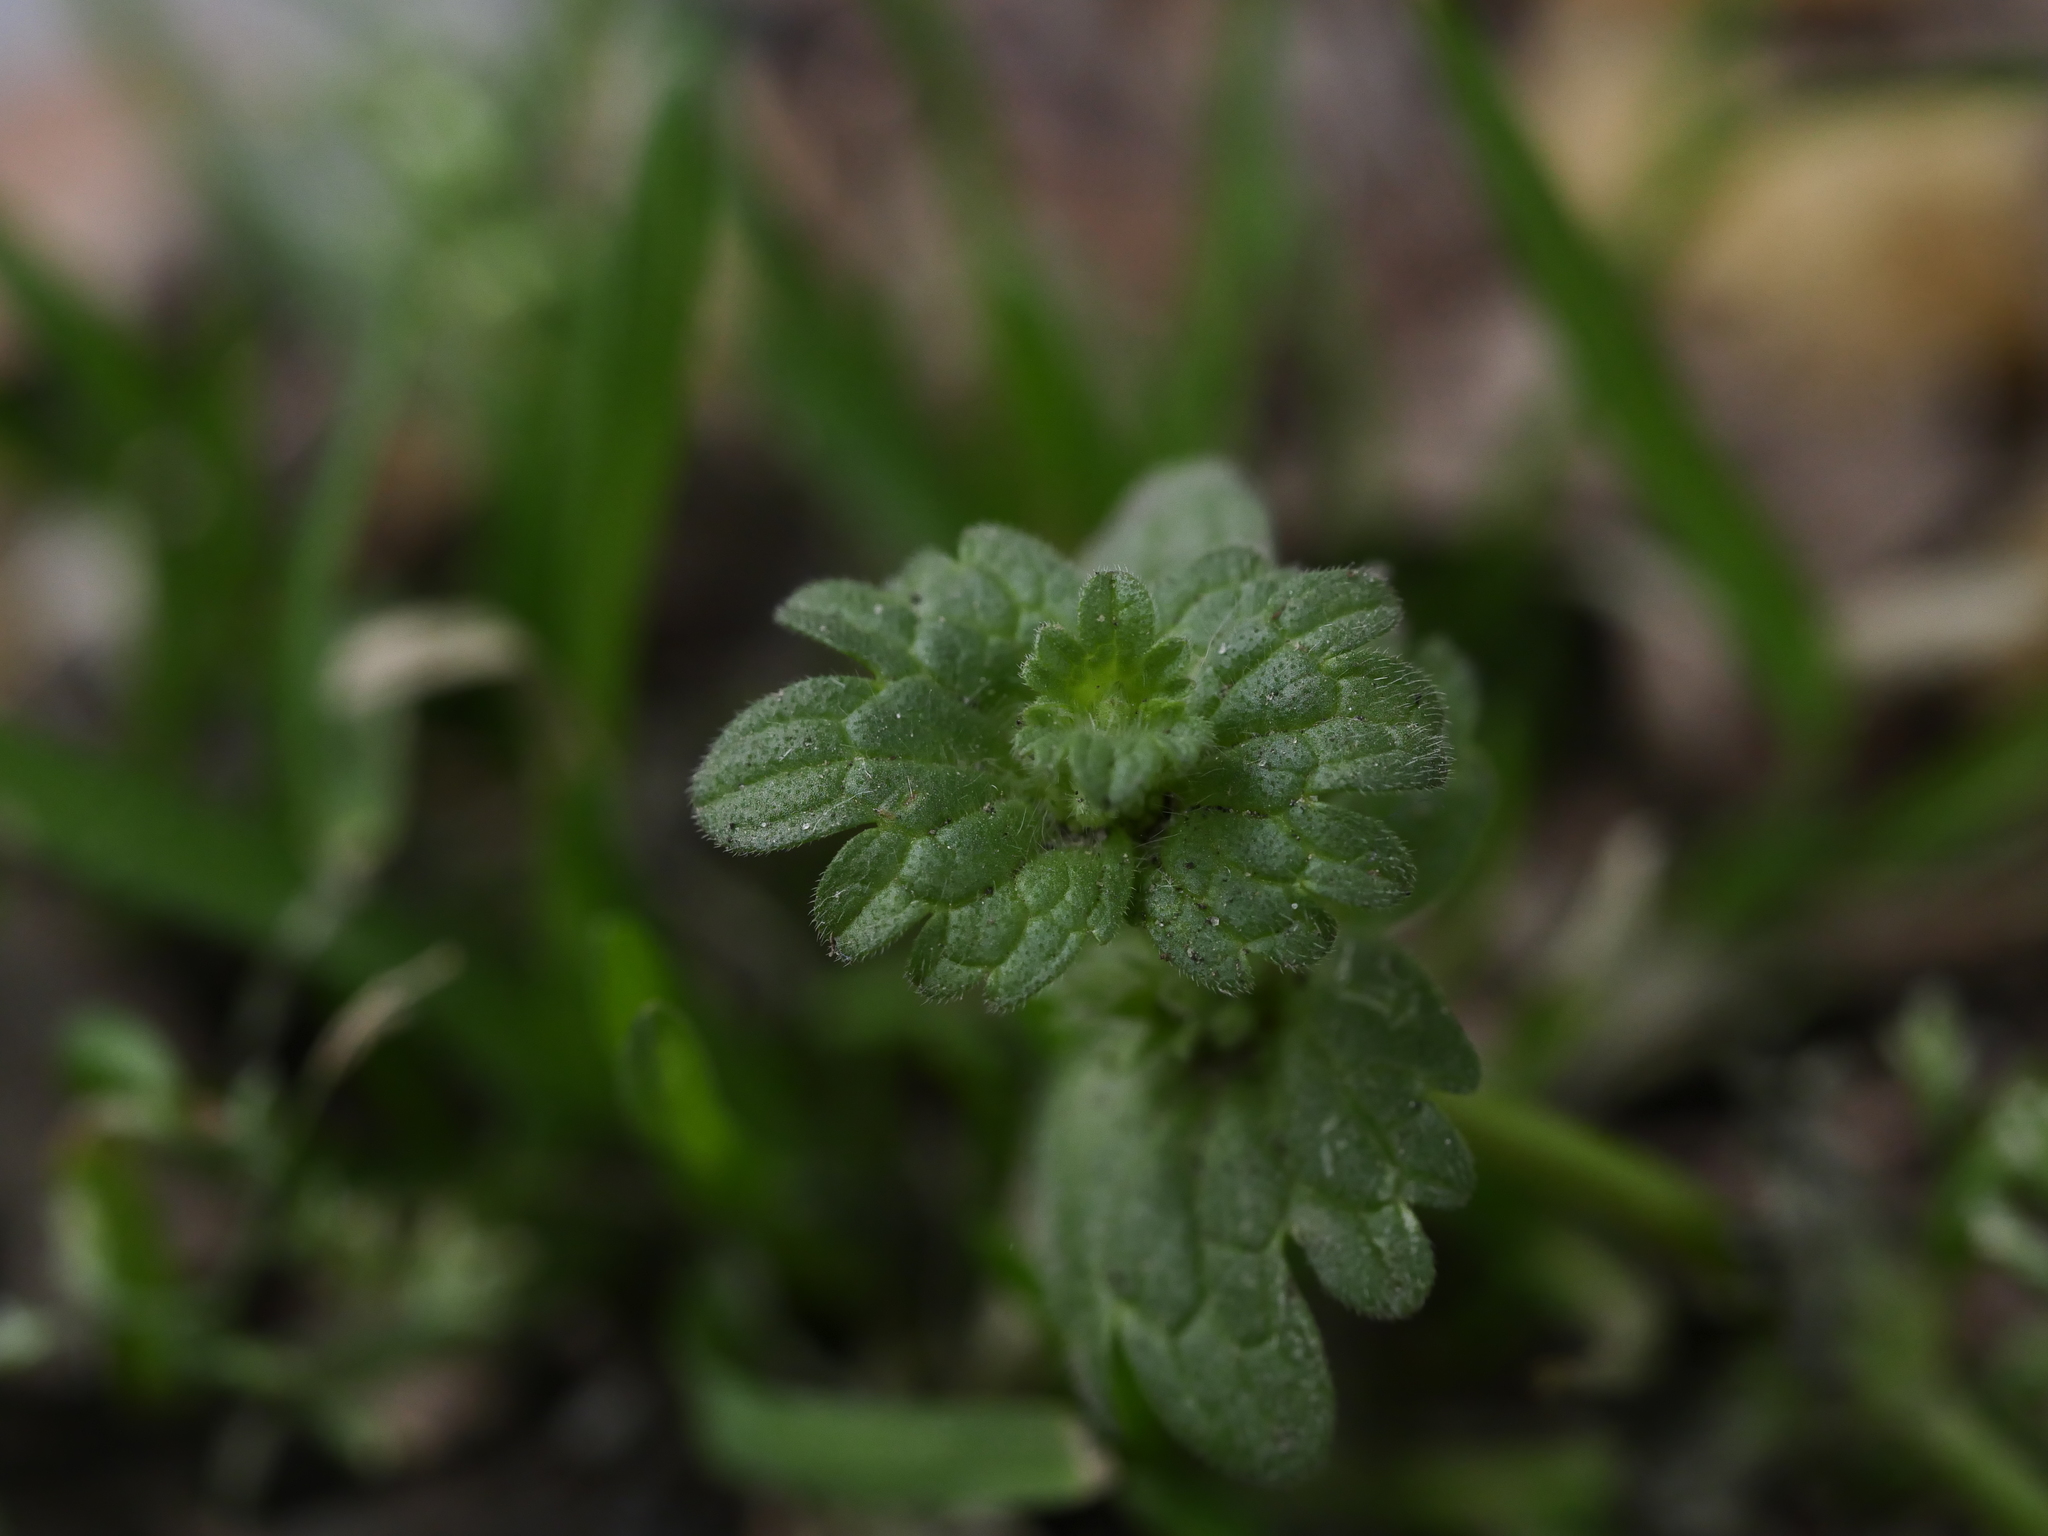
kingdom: Plantae
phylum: Tracheophyta
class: Magnoliopsida
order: Lamiales
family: Lamiaceae
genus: Lamium
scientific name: Lamium amplexicaule
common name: Henbit dead-nettle
